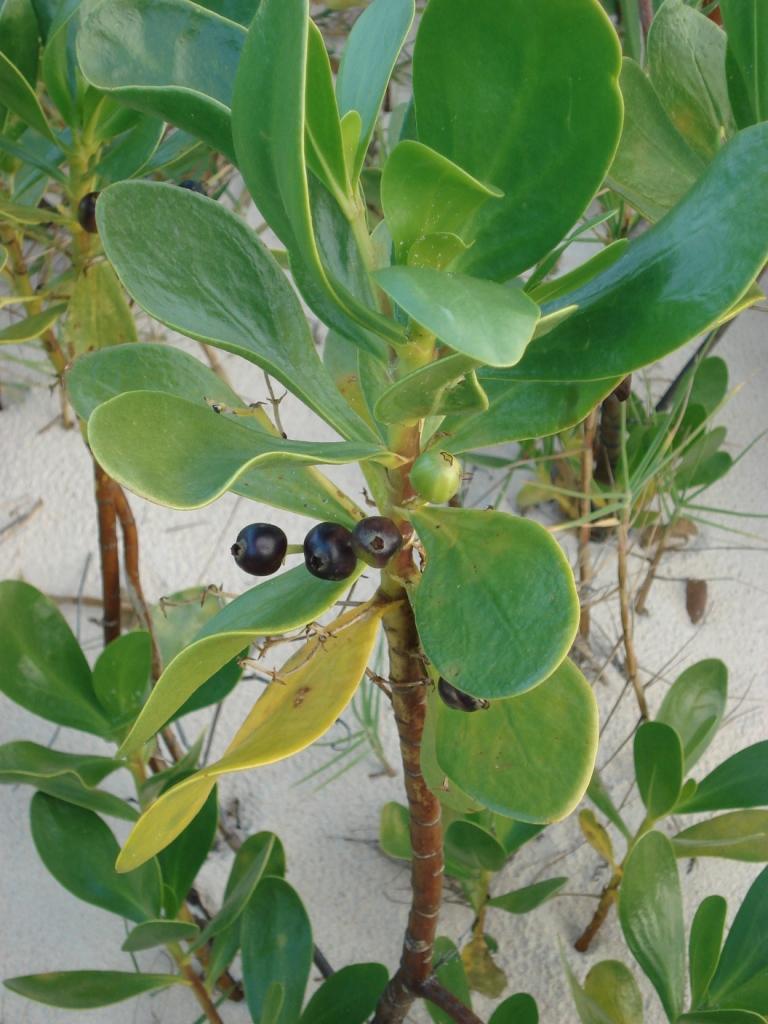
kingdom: Plantae
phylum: Tracheophyta
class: Magnoliopsida
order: Asterales
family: Goodeniaceae
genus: Scaevola
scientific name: Scaevola plumieri
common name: Gull feed
